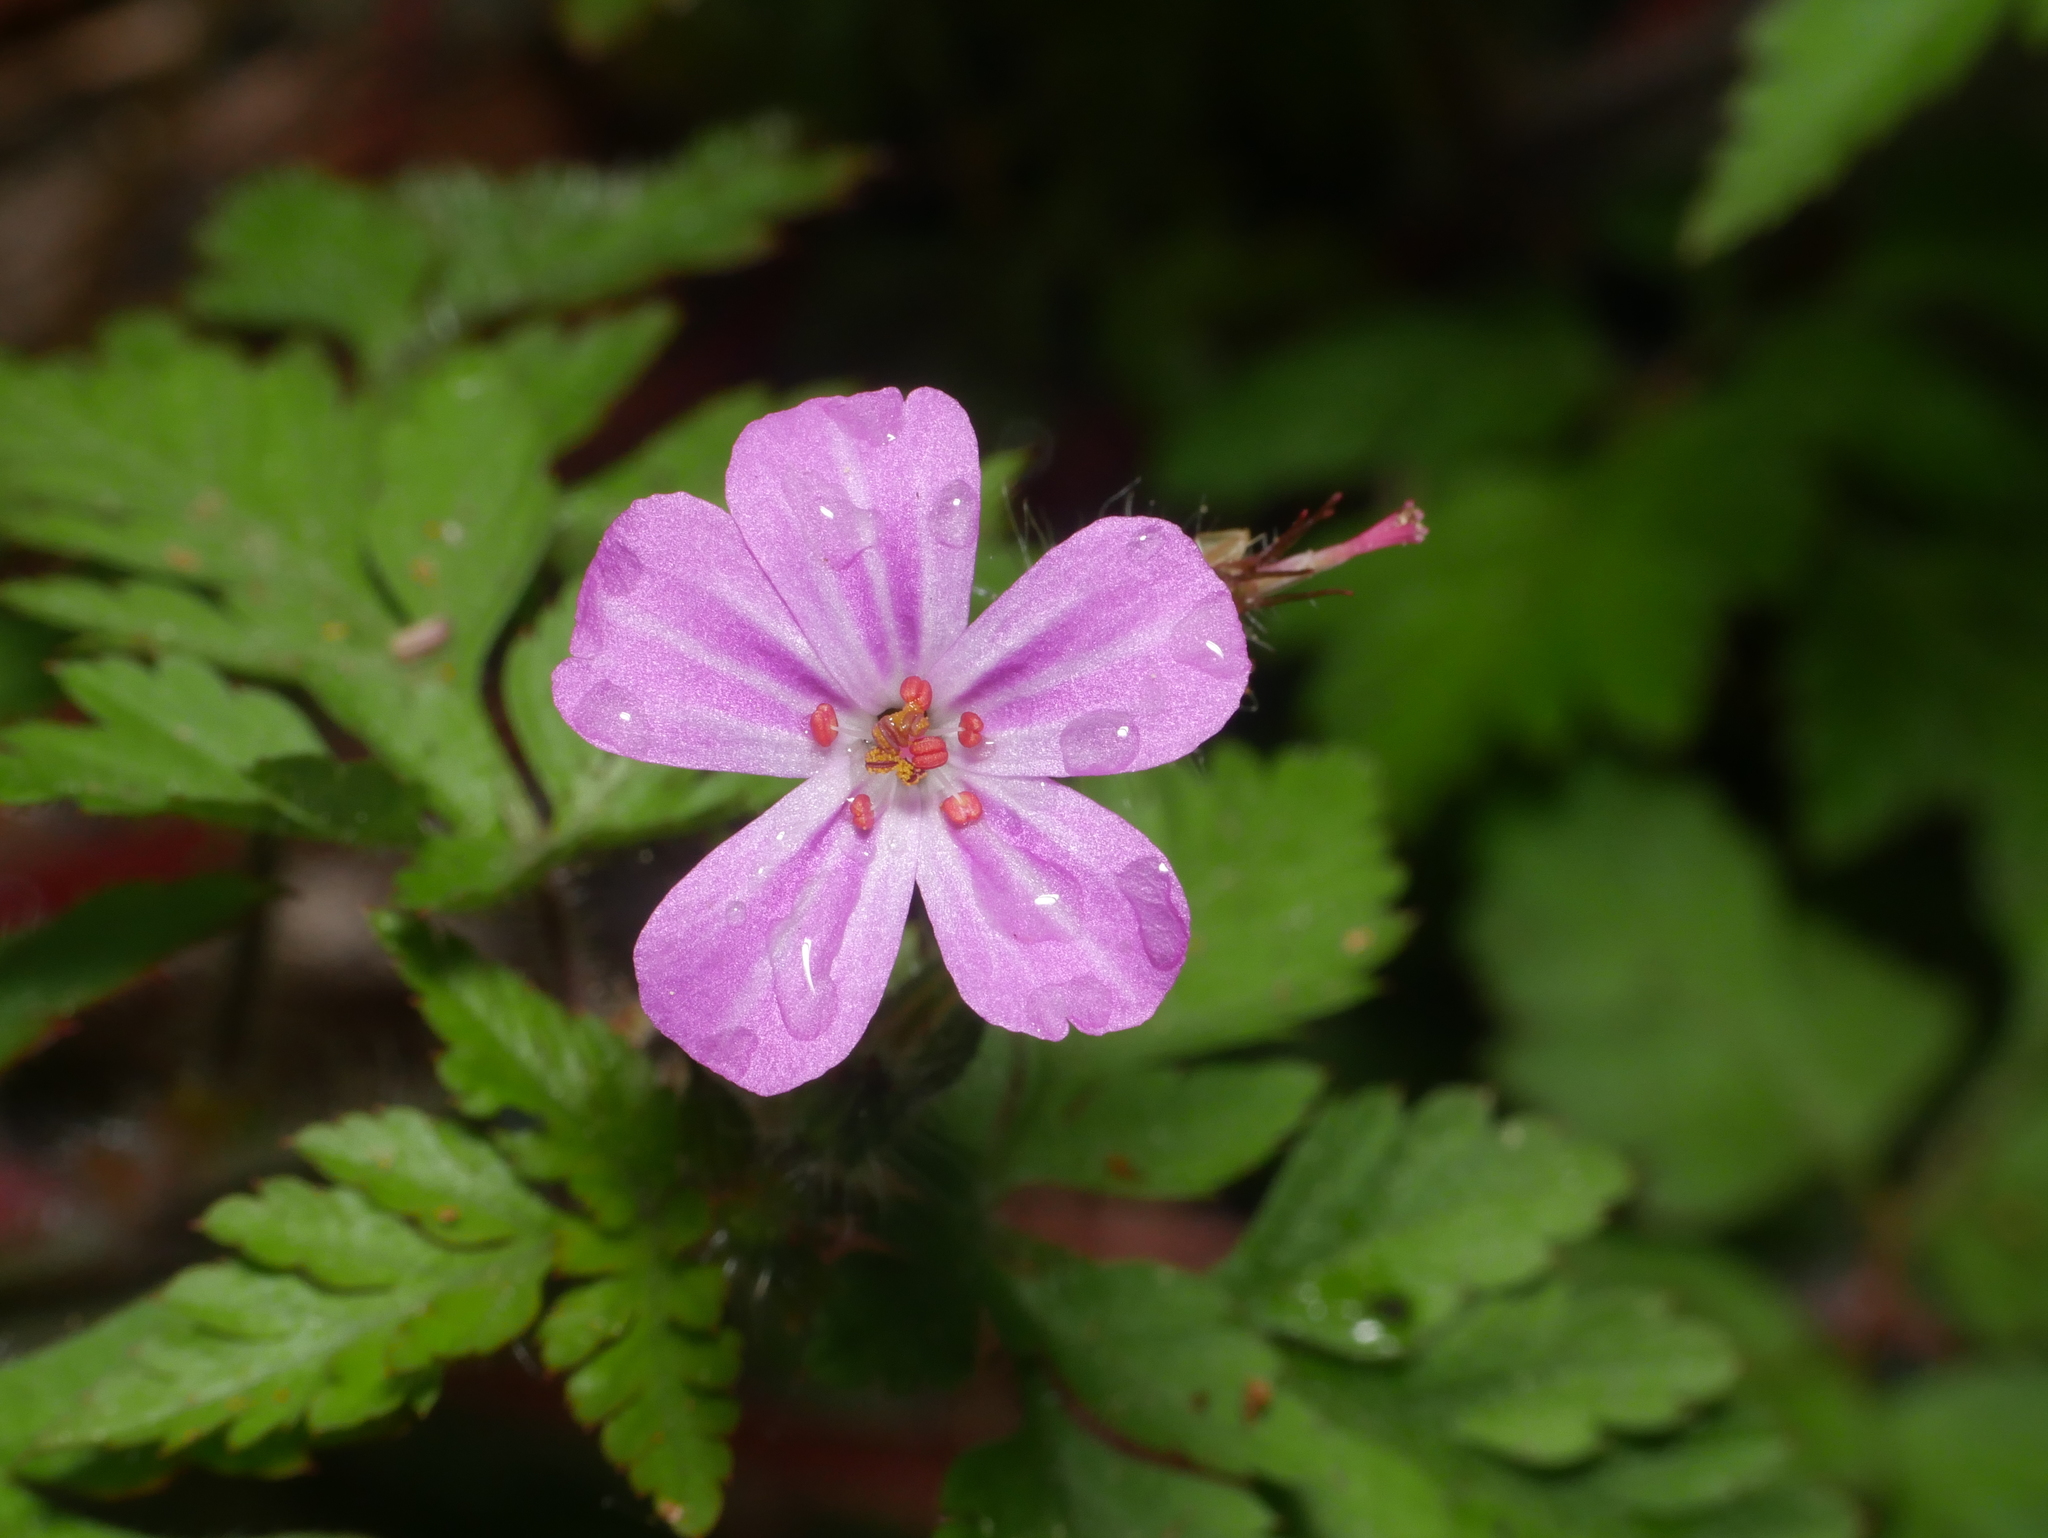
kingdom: Plantae
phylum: Tracheophyta
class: Magnoliopsida
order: Geraniales
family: Geraniaceae
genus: Geranium
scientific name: Geranium robertianum
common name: Herb-robert
